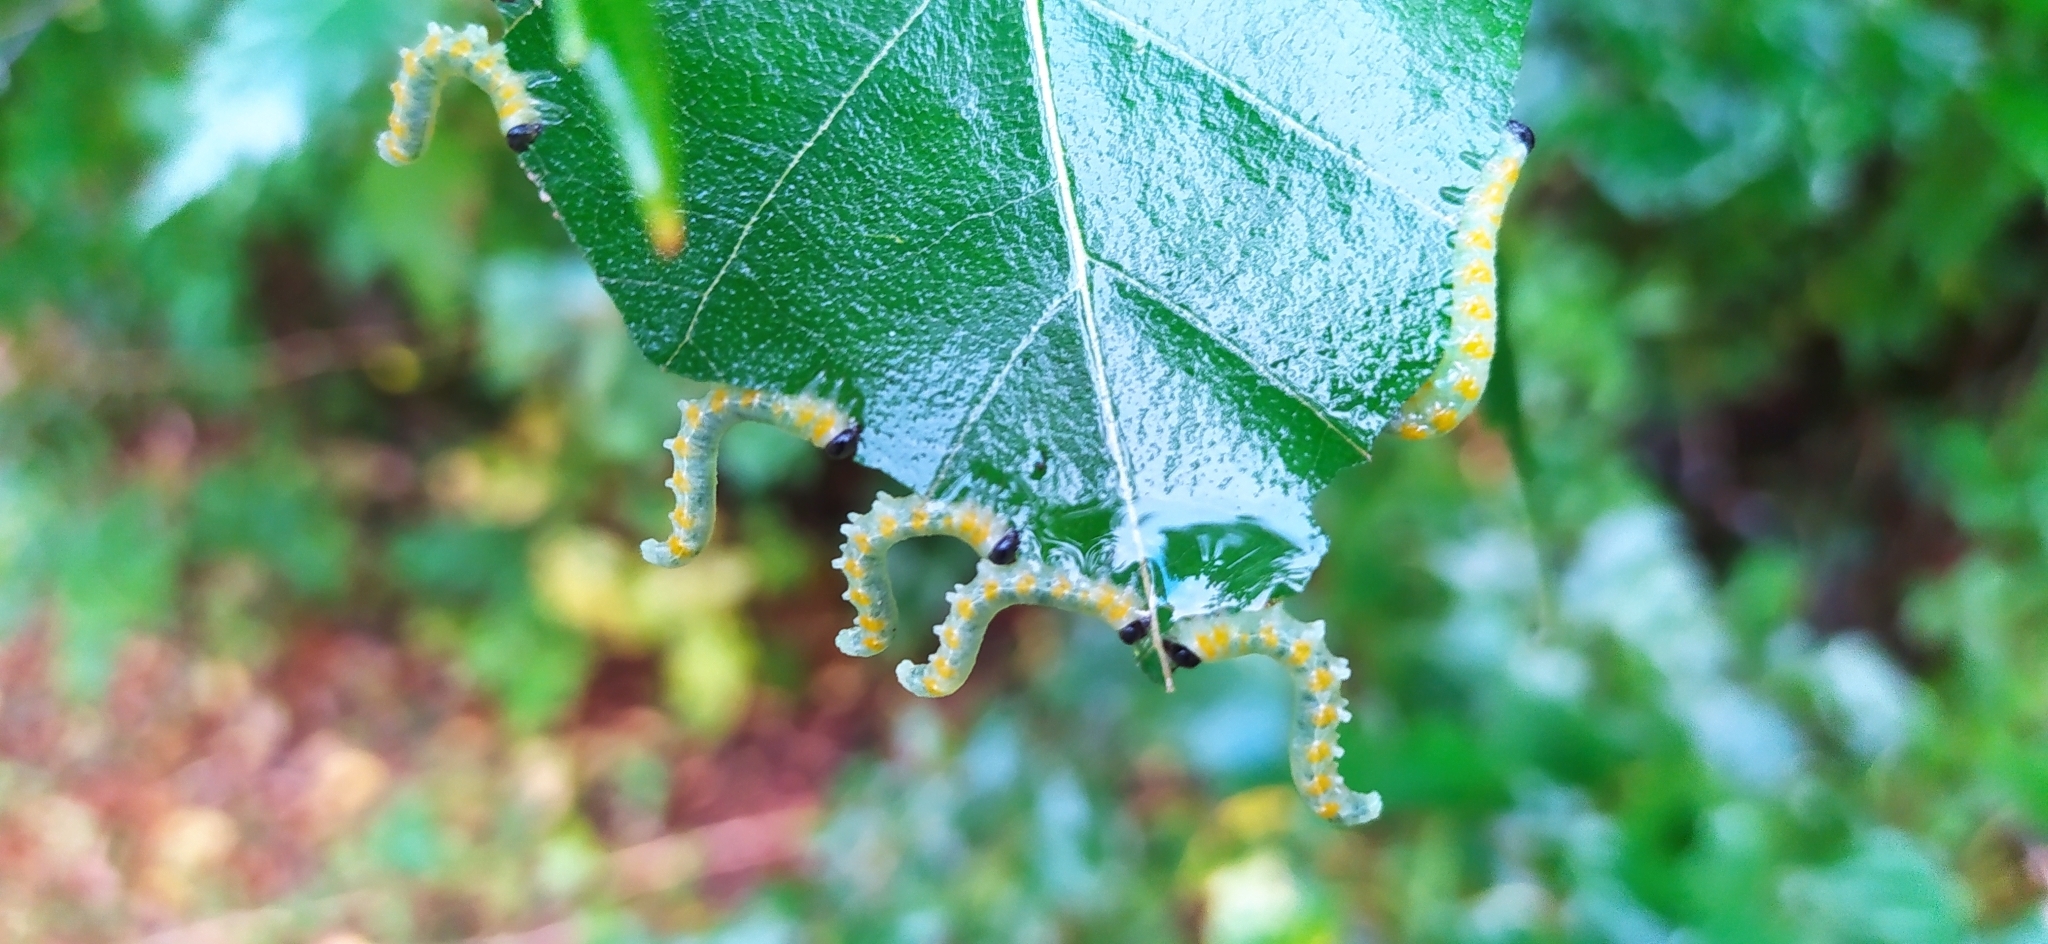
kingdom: Animalia
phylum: Arthropoda
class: Insecta
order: Hymenoptera
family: Tenthredinidae
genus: Craesus
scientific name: Craesus septentrionalis
